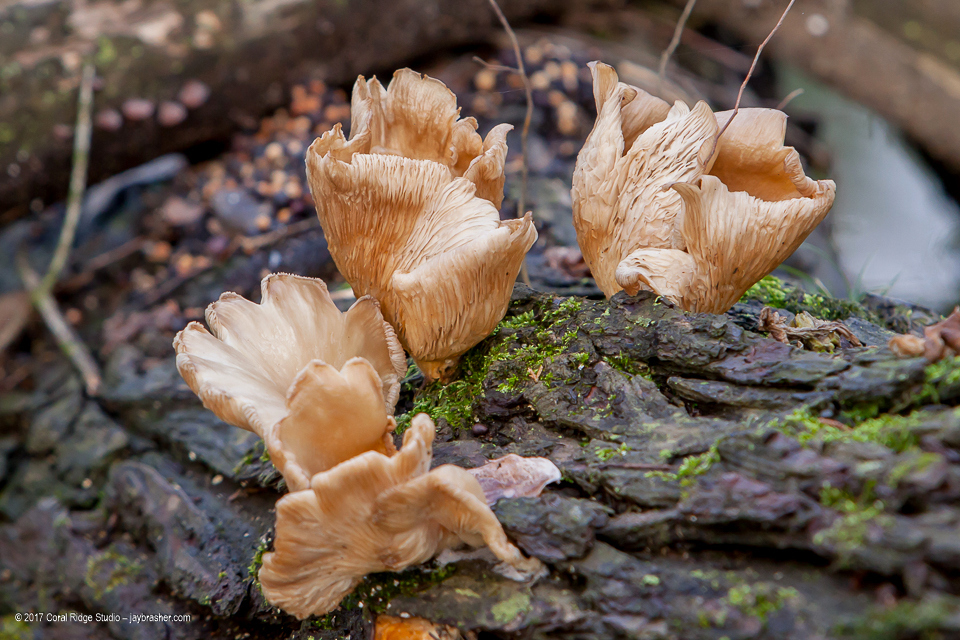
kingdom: Fungi
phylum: Basidiomycota
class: Agaricomycetes
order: Agaricales
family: Pleurotaceae
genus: Pleurotus
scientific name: Pleurotus ostreatus
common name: Oyster mushroom
